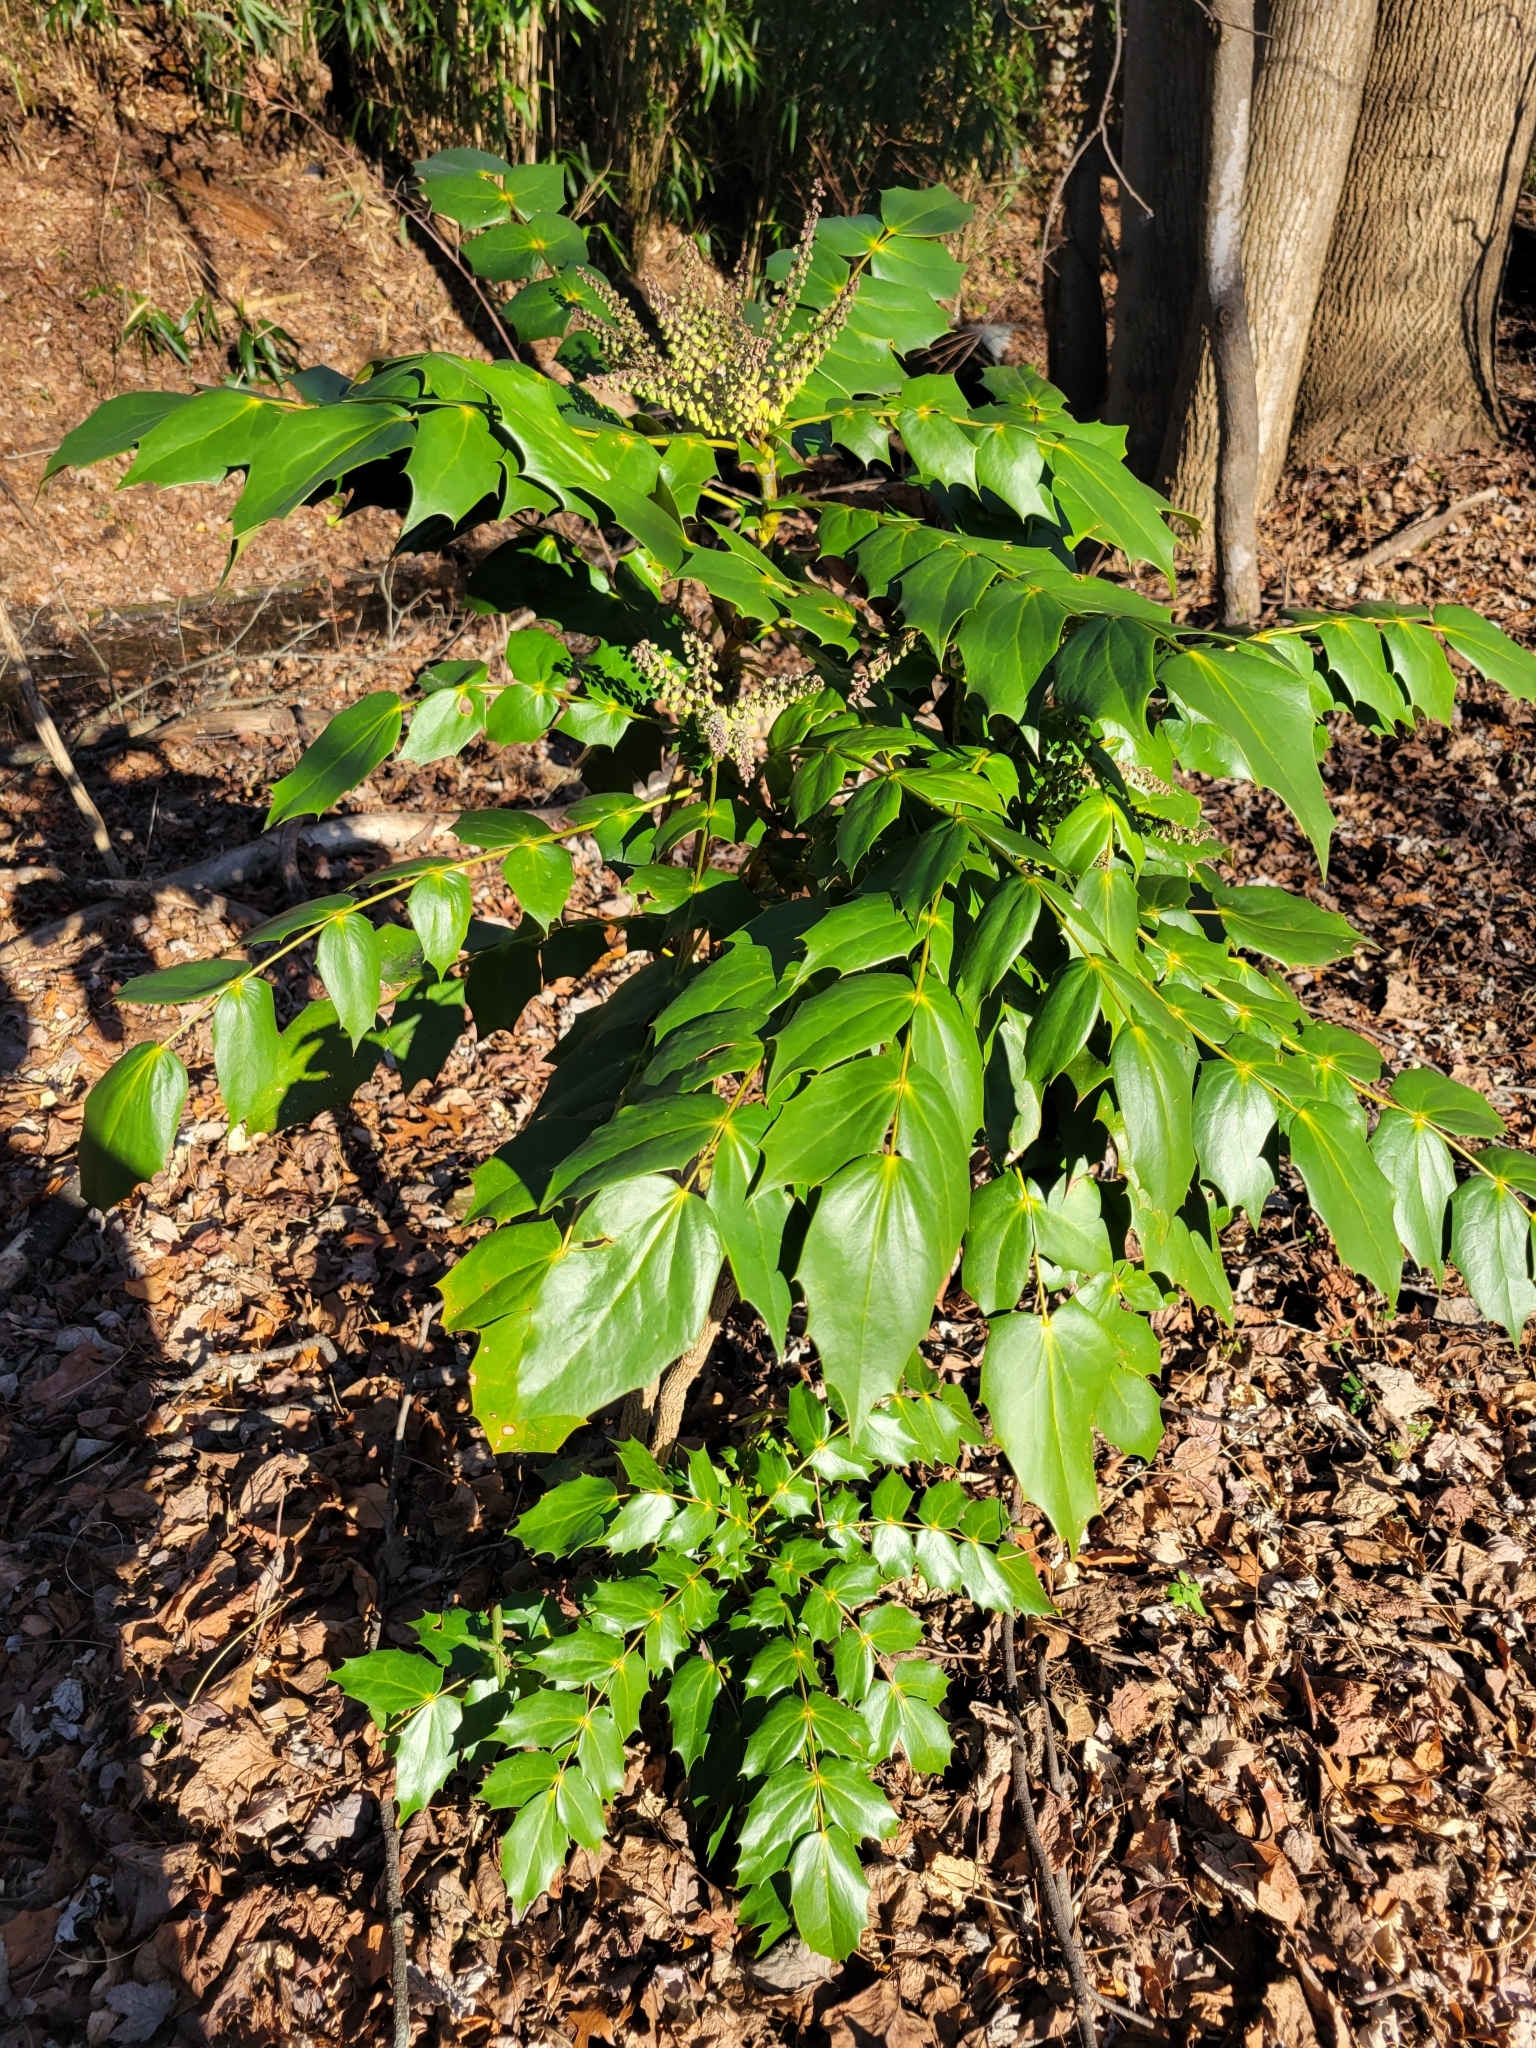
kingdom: Plantae
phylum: Tracheophyta
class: Magnoliopsida
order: Ranunculales
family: Berberidaceae
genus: Mahonia
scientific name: Mahonia bealei
